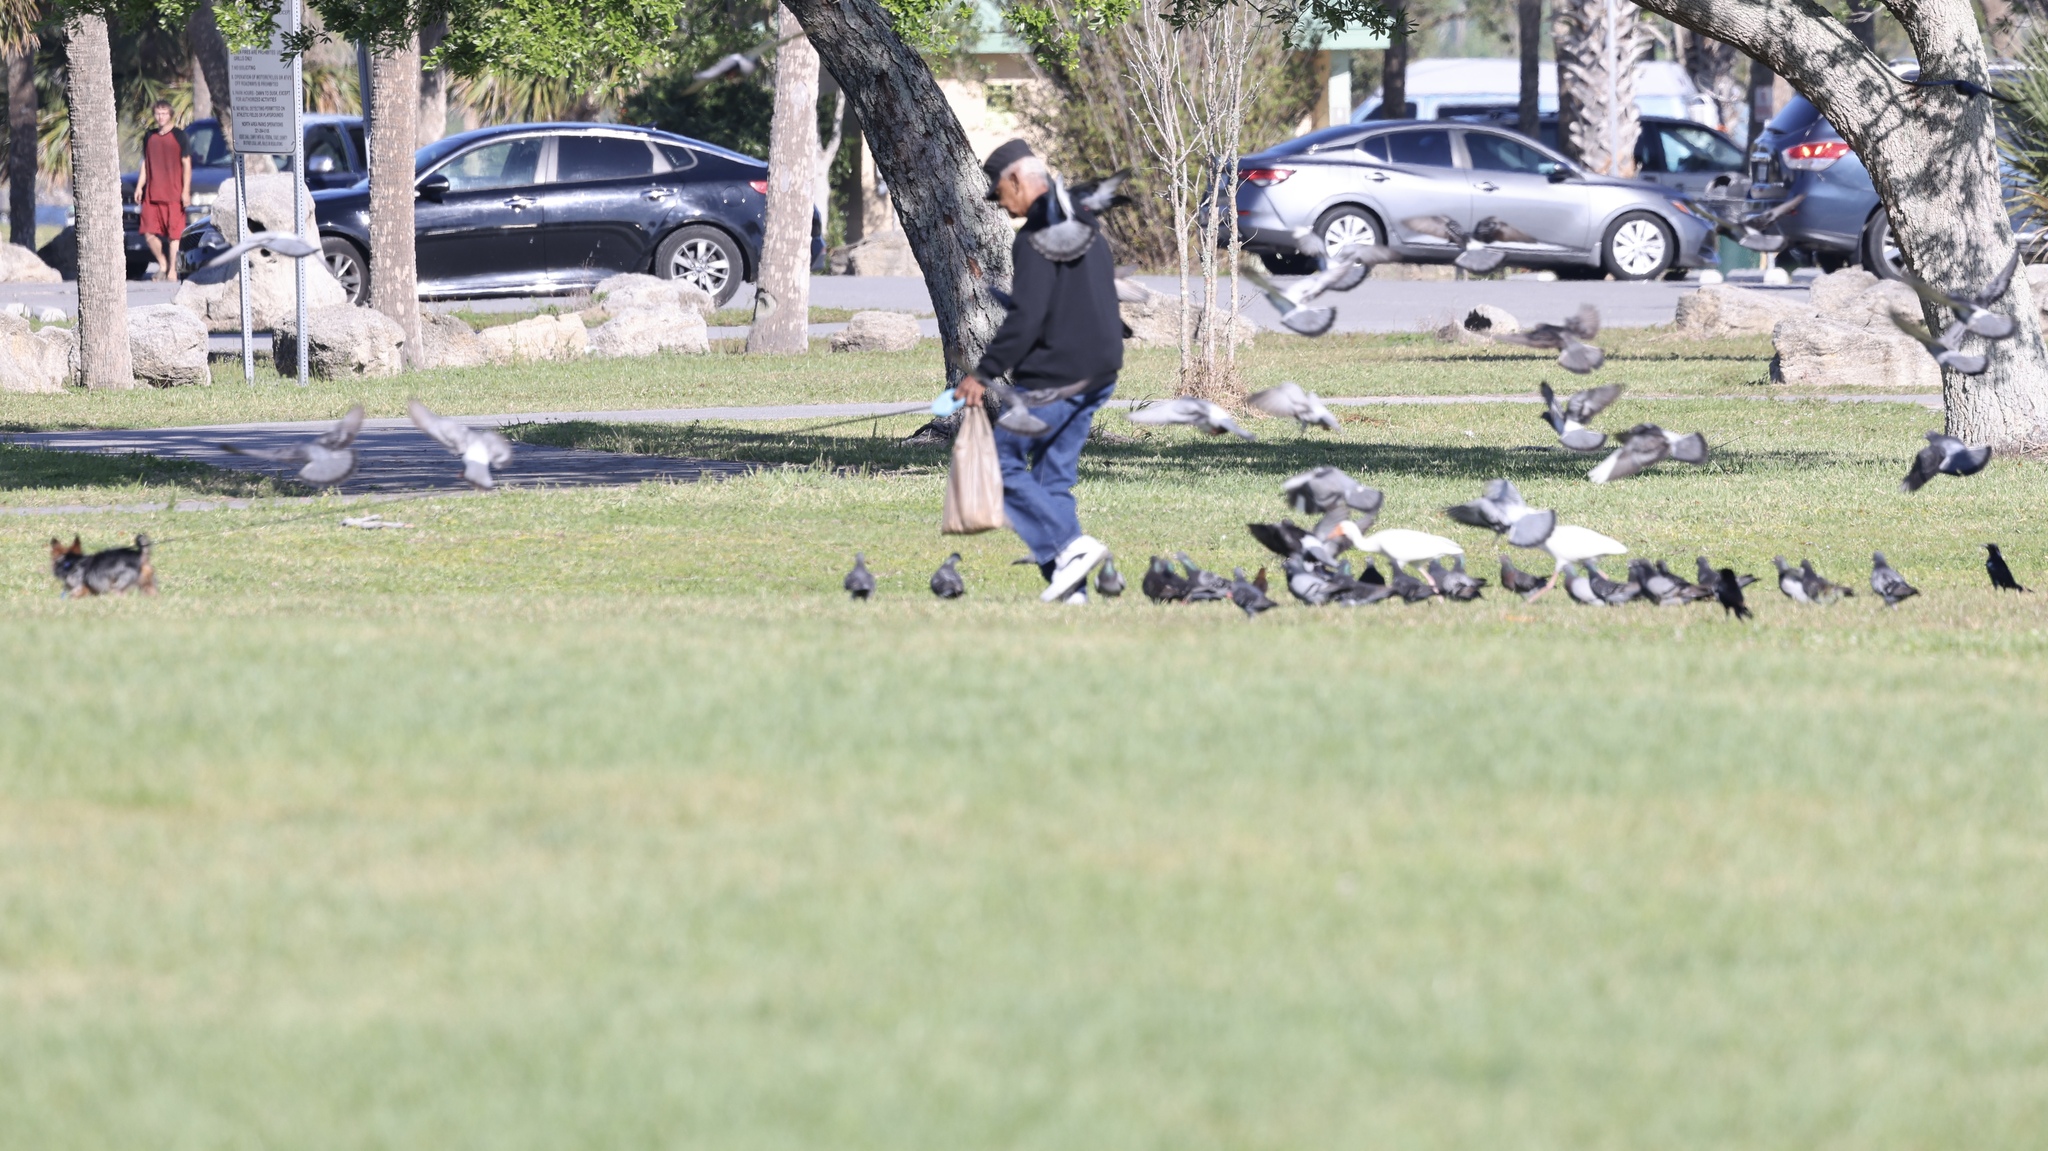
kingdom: Animalia
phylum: Chordata
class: Aves
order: Columbiformes
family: Columbidae
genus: Columba
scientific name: Columba livia
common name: Rock pigeon
